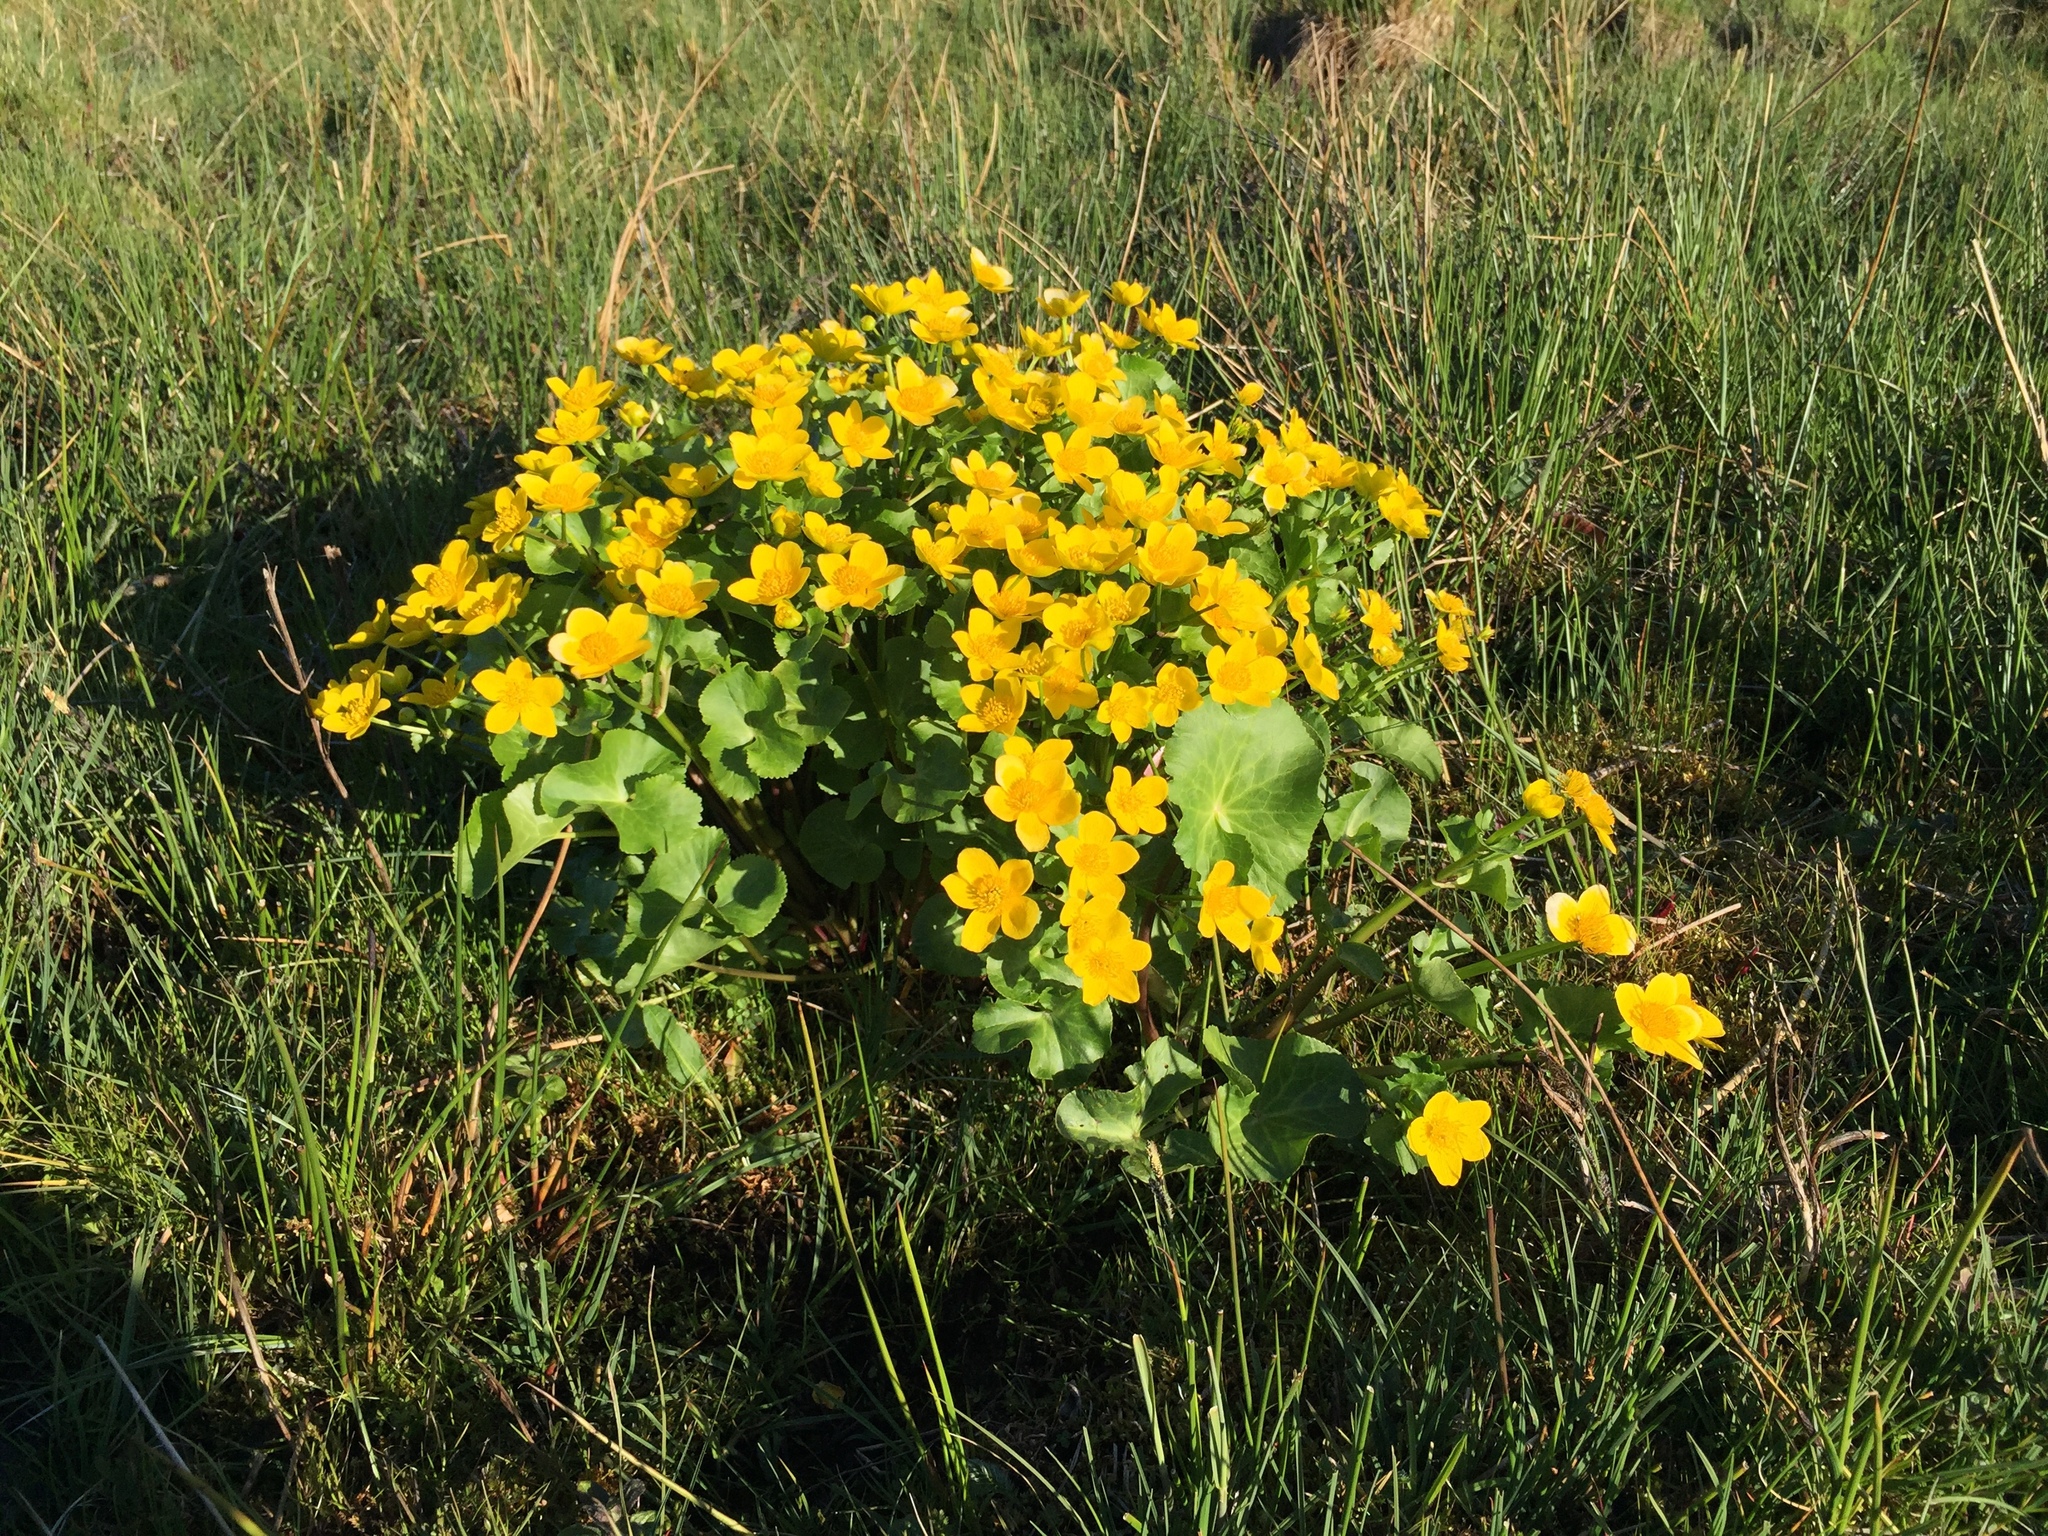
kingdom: Plantae
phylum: Tracheophyta
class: Magnoliopsida
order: Ranunculales
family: Ranunculaceae
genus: Caltha
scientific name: Caltha palustris
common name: Marsh marigold
